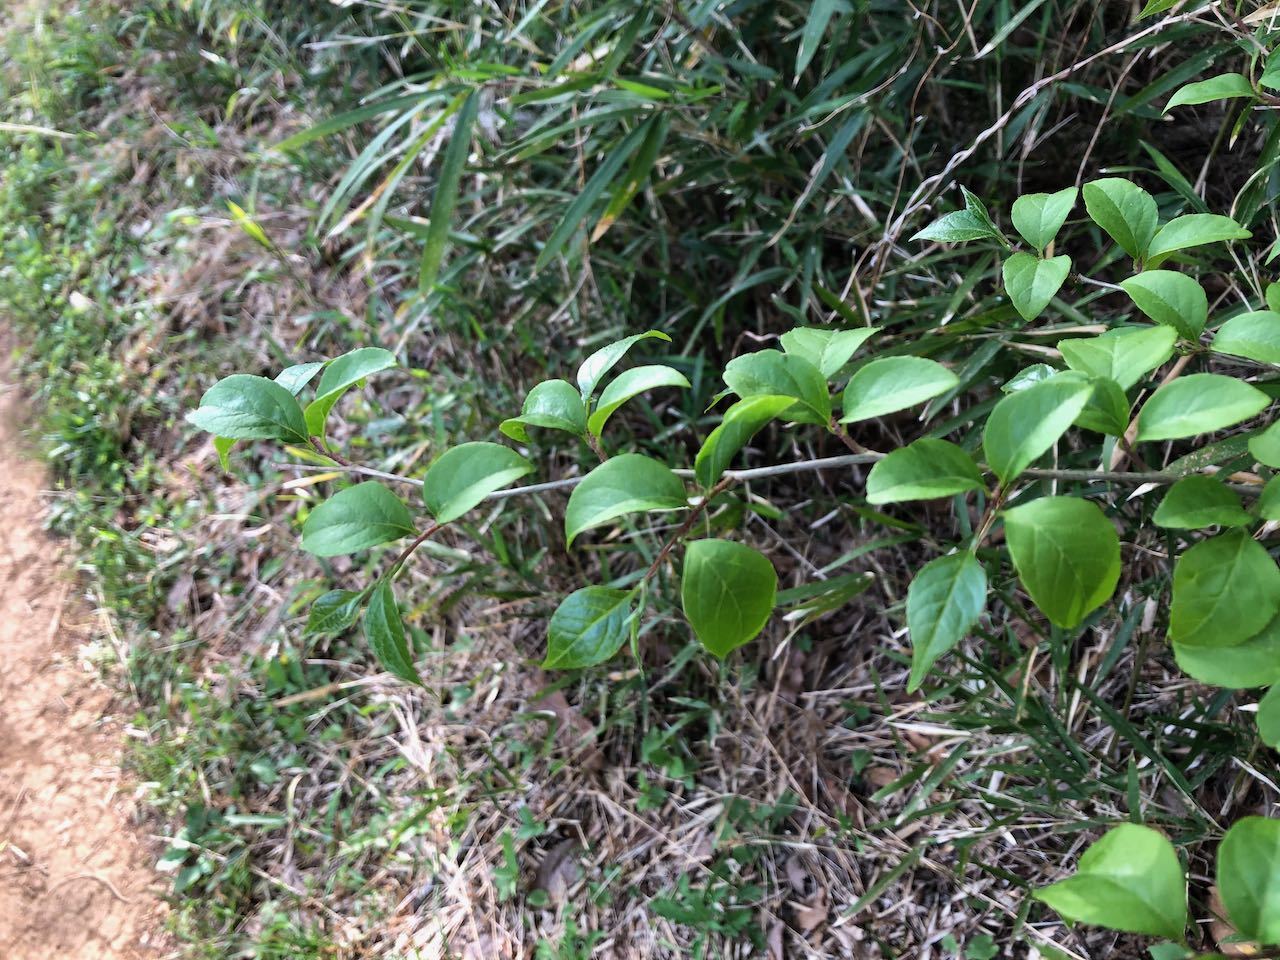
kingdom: Plantae
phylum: Tracheophyta
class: Magnoliopsida
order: Ericales
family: Styracaceae
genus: Styrax
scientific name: Styrax japonicus
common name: Japanese snowbell
